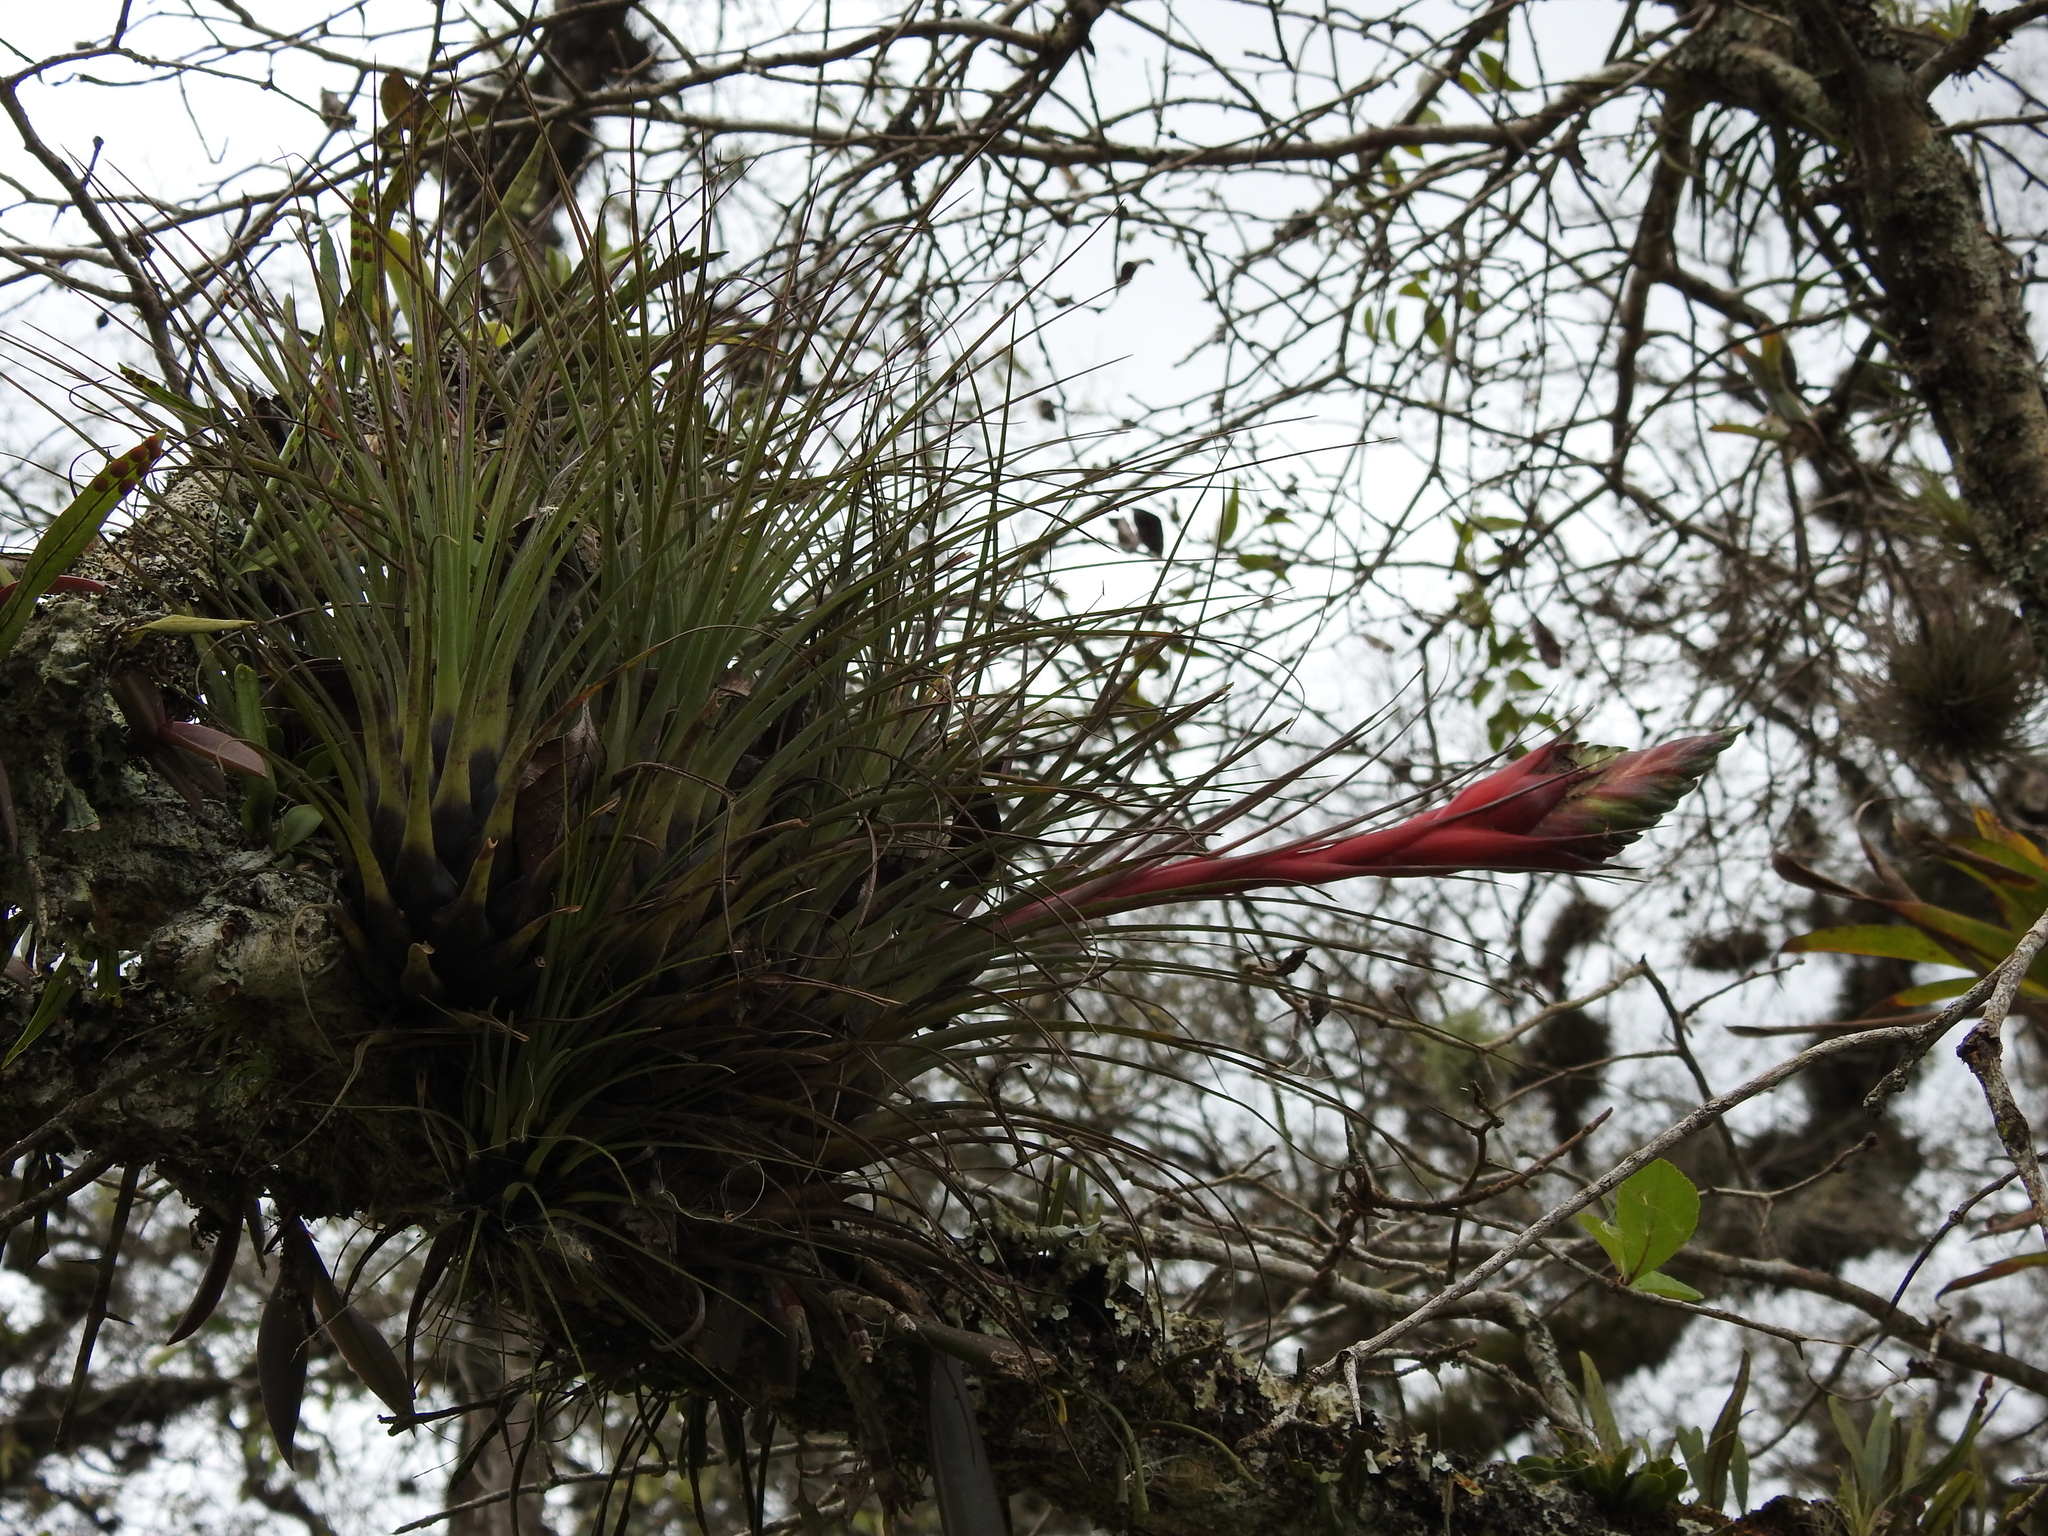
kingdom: Plantae
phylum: Tracheophyta
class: Liliopsida
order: Poales
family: Bromeliaceae
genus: Tillandsia
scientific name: Tillandsia punctulata
